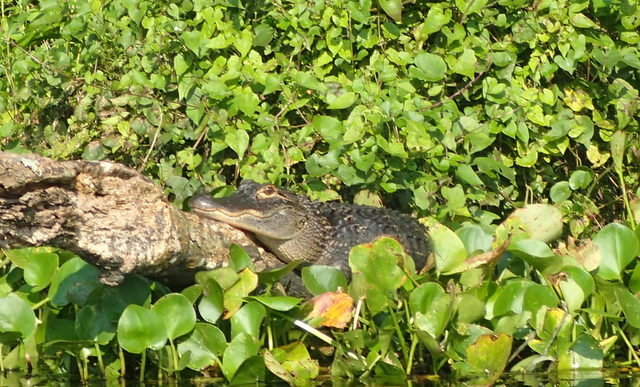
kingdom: Animalia
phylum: Chordata
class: Crocodylia
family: Alligatoridae
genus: Alligator
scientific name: Alligator mississippiensis
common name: American alligator
